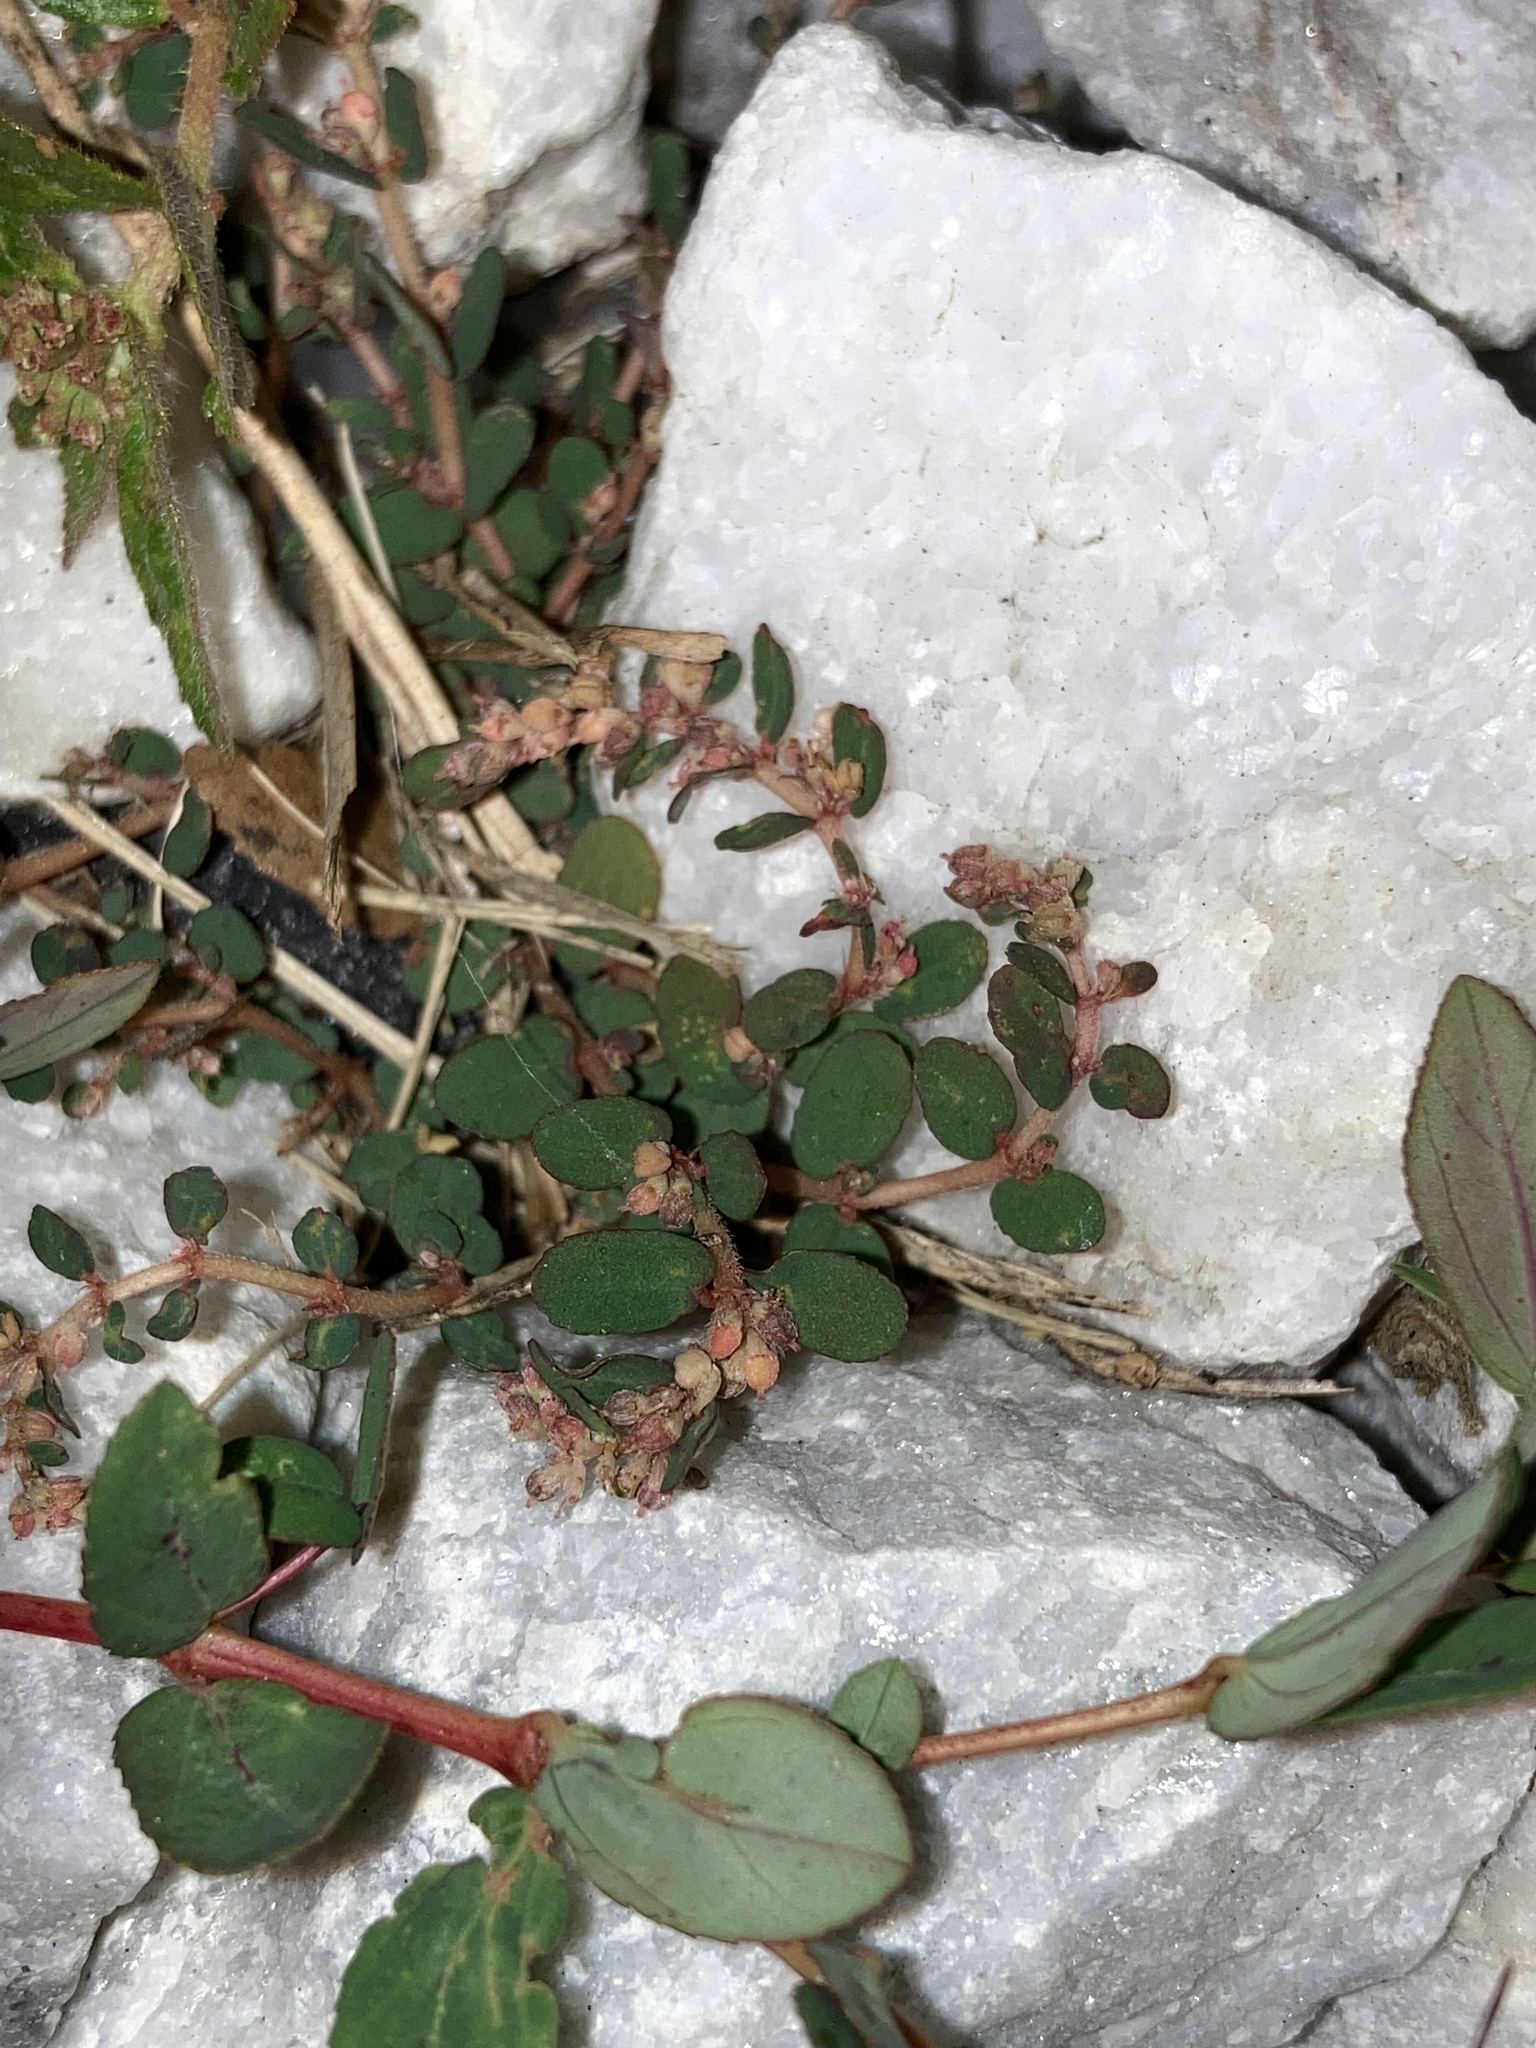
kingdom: Plantae
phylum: Tracheophyta
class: Magnoliopsida
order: Malpighiales
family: Euphorbiaceae
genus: Euphorbia
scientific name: Euphorbia thymifolia
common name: Gulf sandmat
